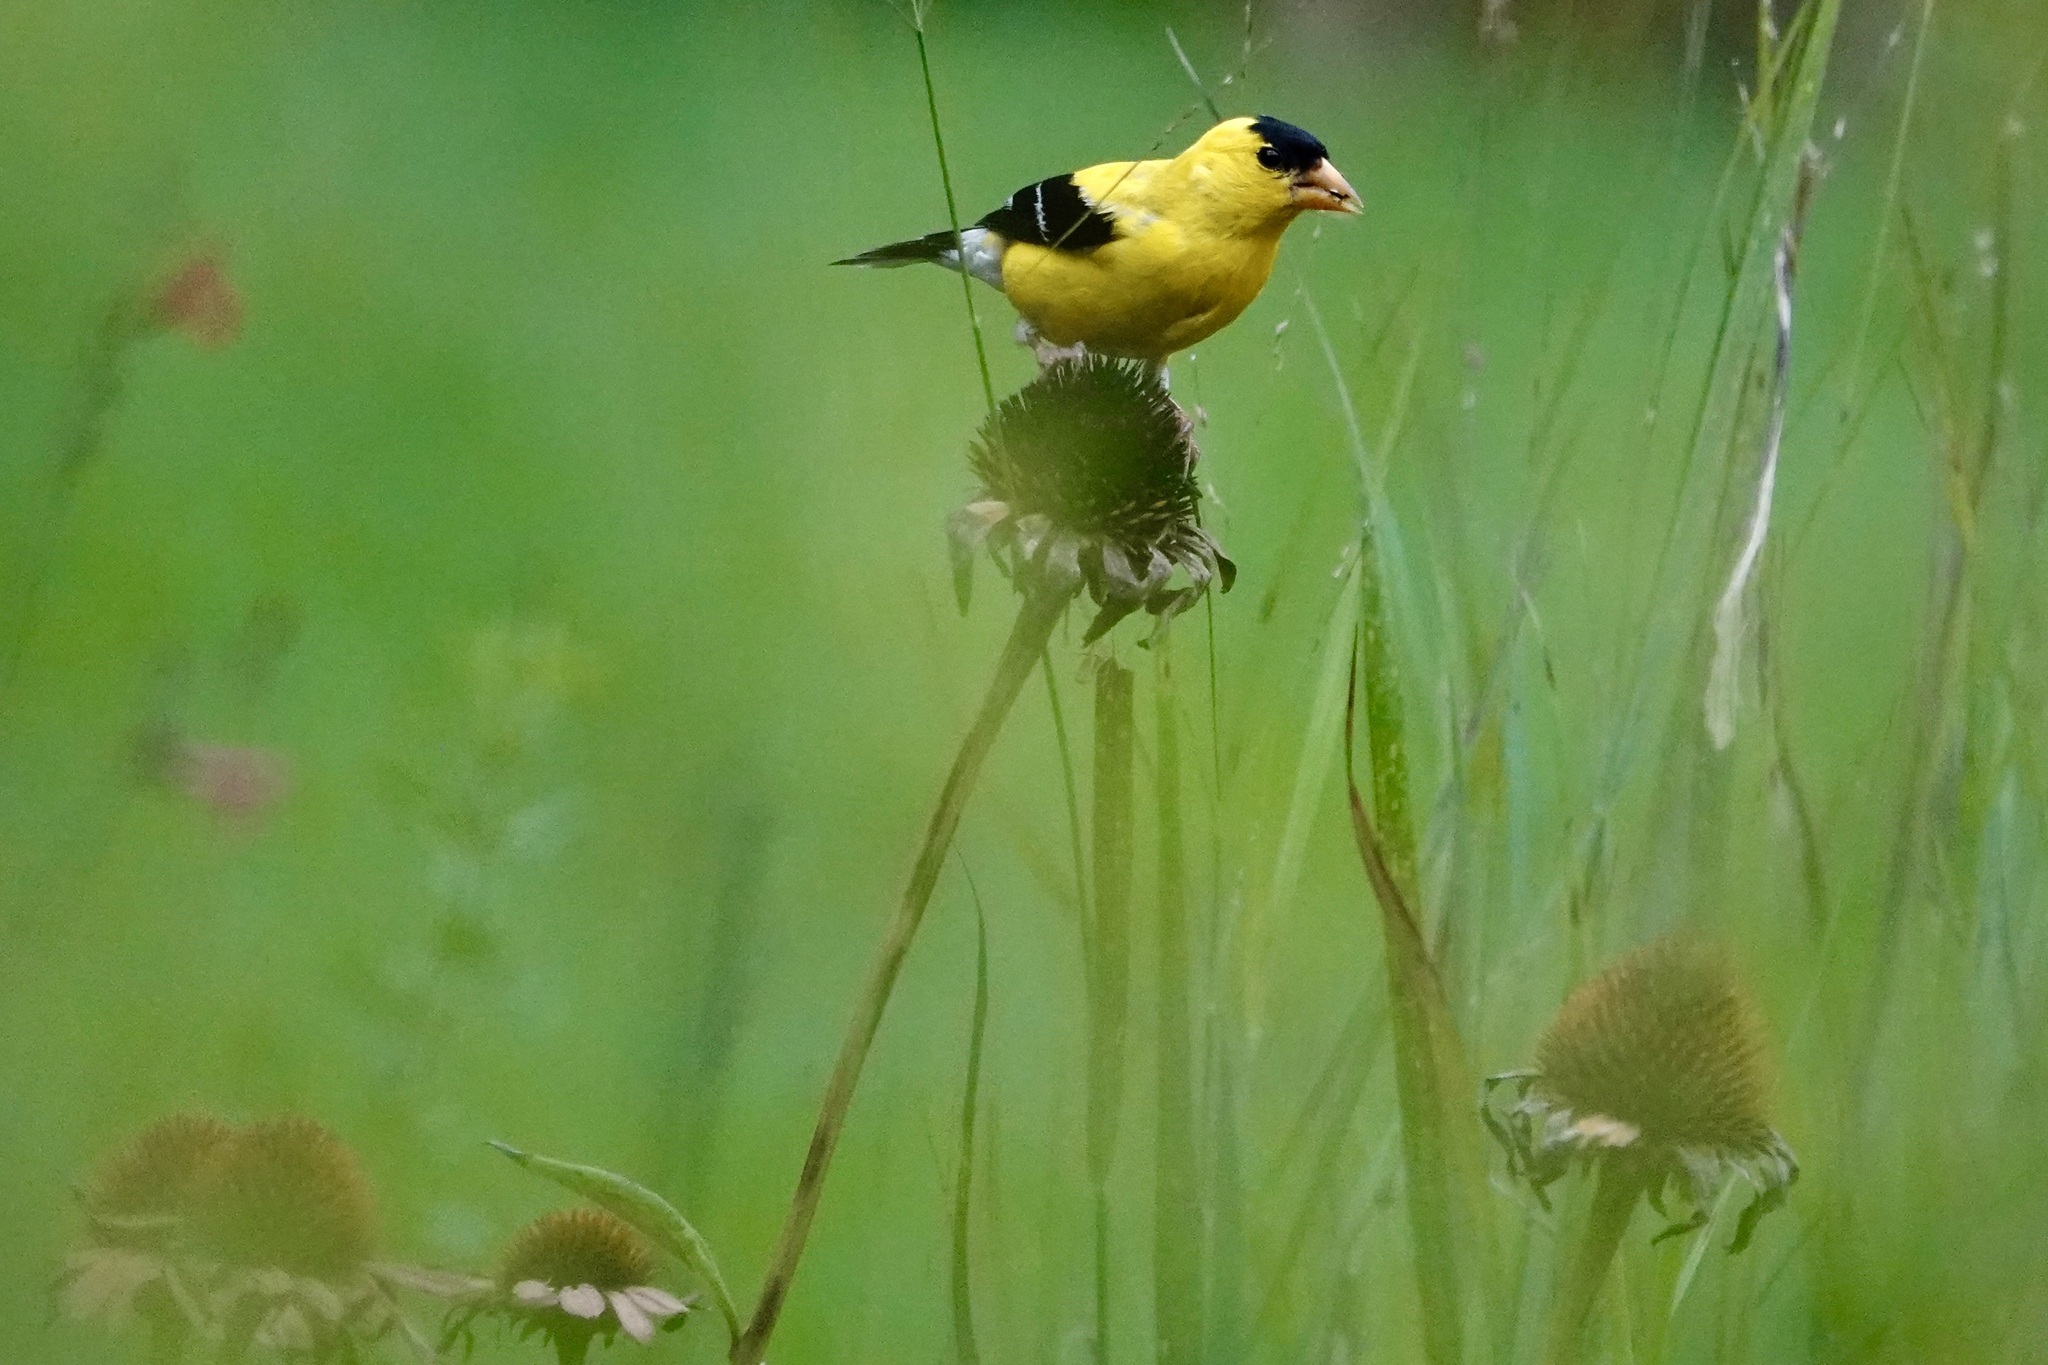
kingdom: Animalia
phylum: Chordata
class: Aves
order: Passeriformes
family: Fringillidae
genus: Spinus
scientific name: Spinus tristis
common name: American goldfinch
